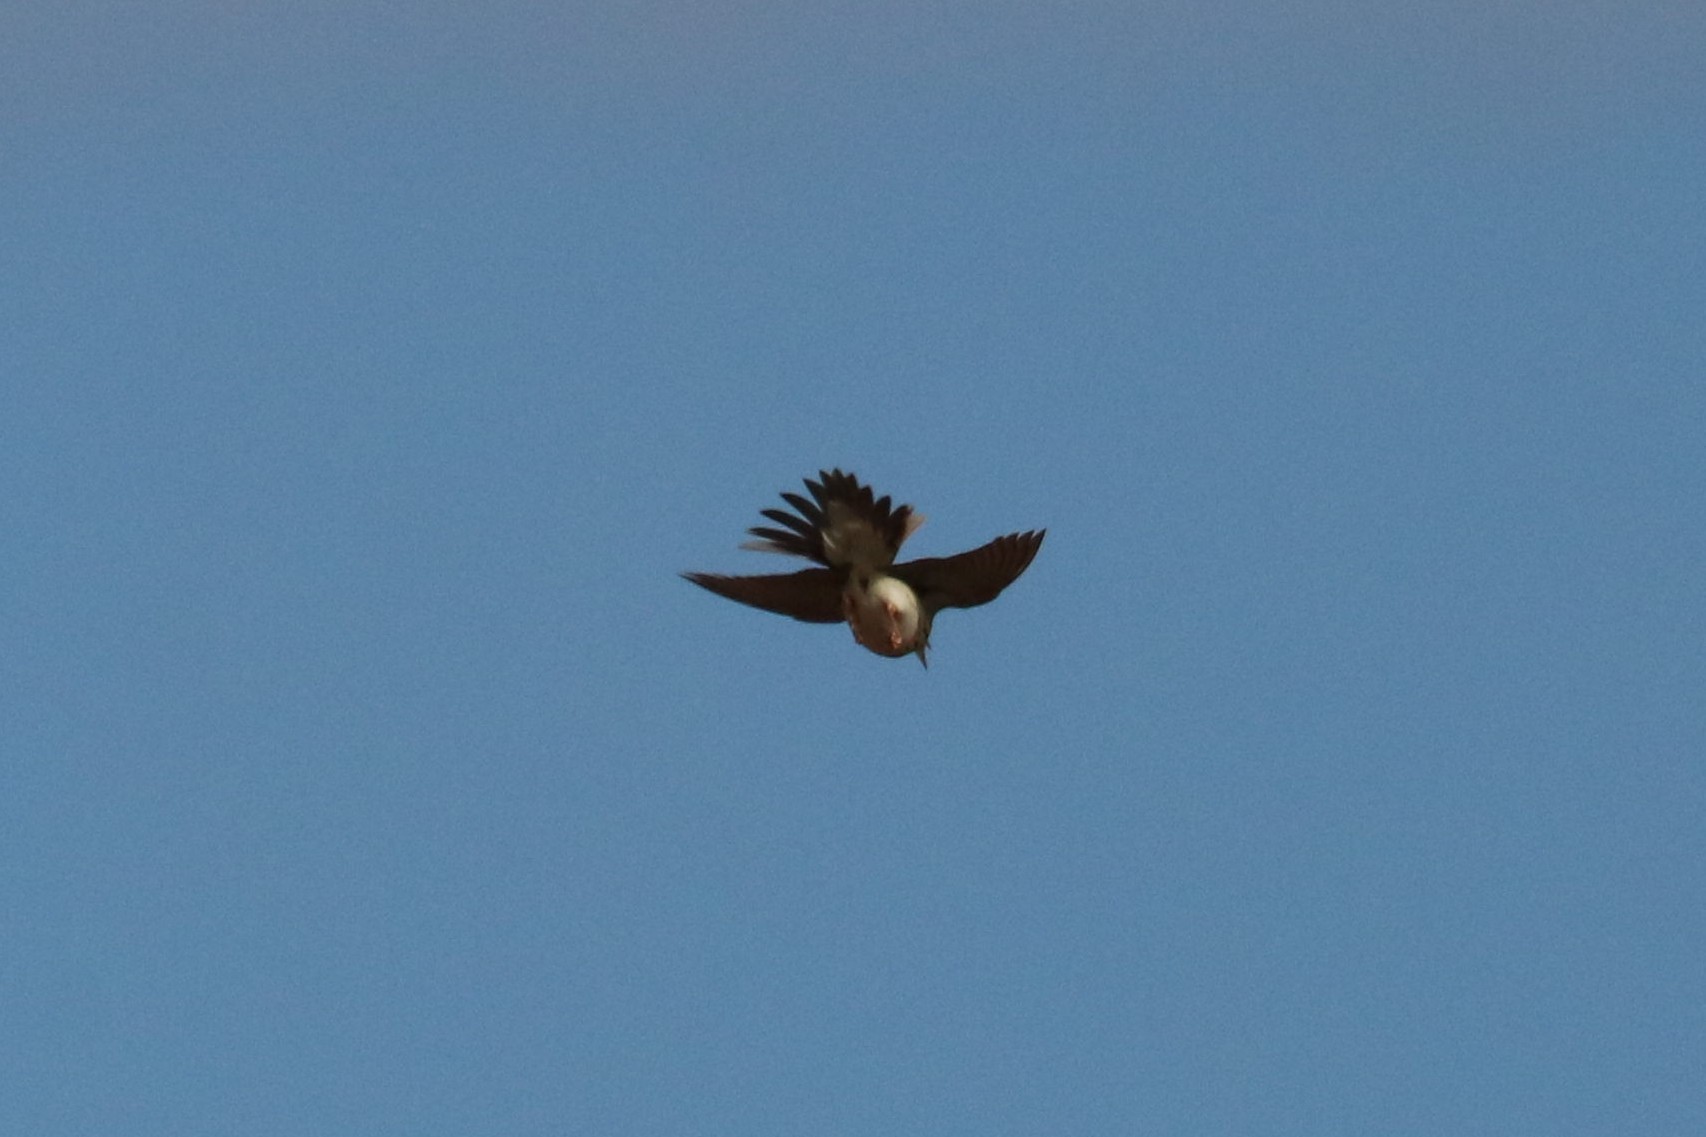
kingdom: Animalia
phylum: Chordata
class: Aves
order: Passeriformes
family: Motacillidae
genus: Anthus
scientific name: Anthus trivialis
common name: Tree pipit
